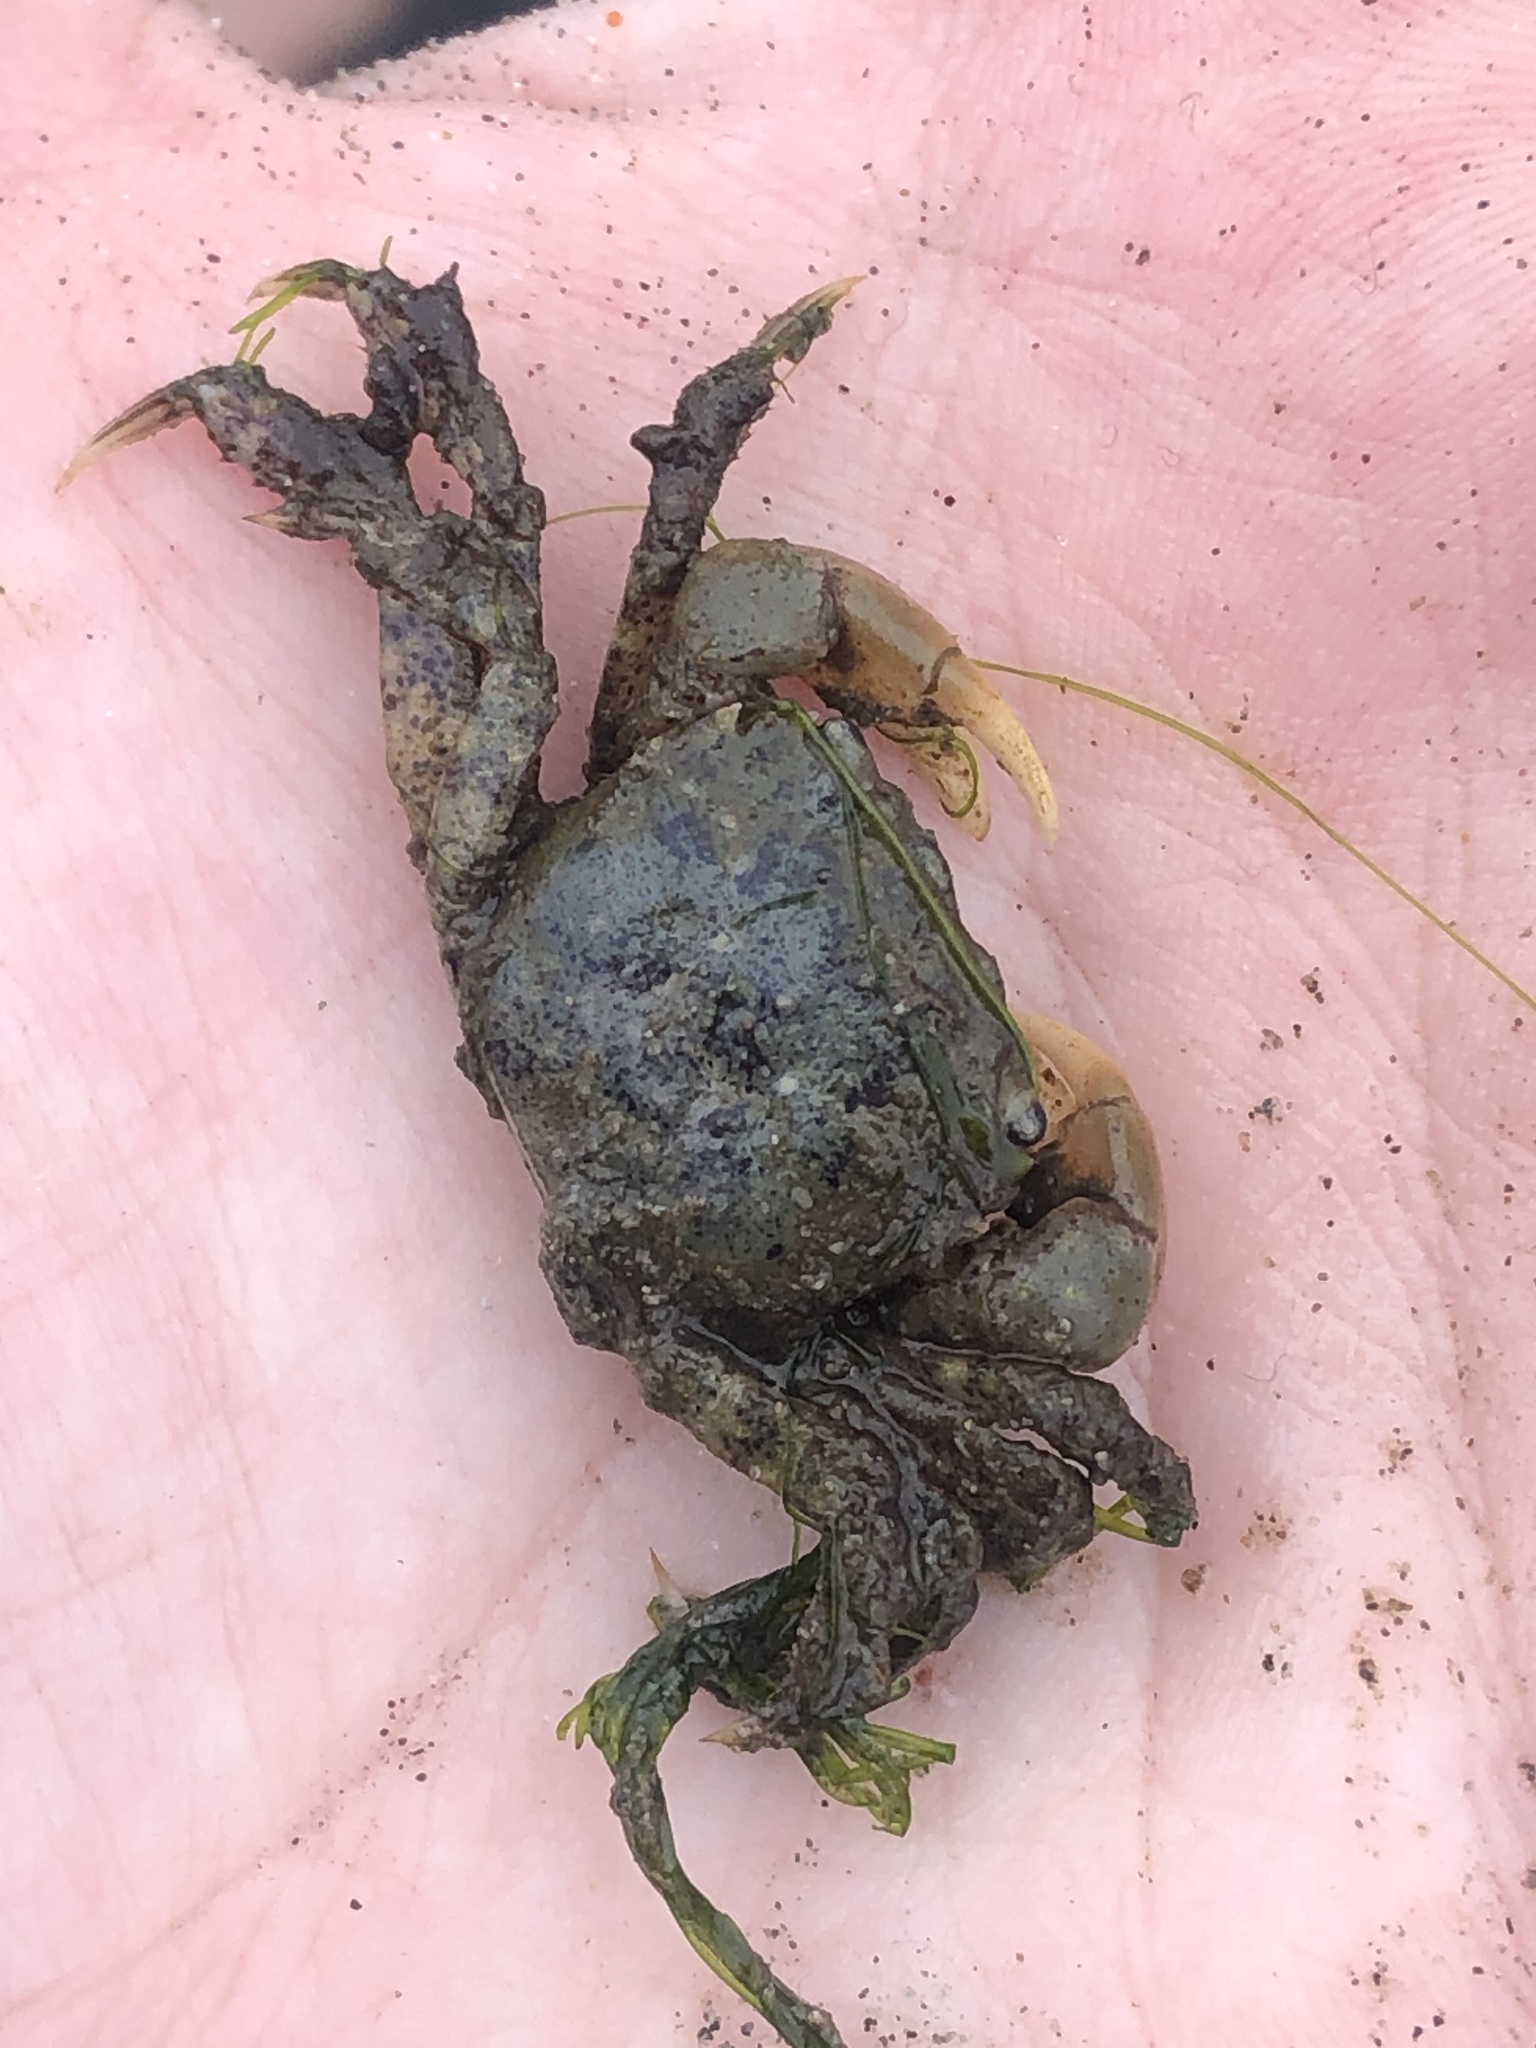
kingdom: Animalia
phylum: Arthropoda
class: Malacostraca
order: Decapoda
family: Varunidae
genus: Hemigrapsus
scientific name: Hemigrapsus oregonensis
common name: Yellow shore crab
